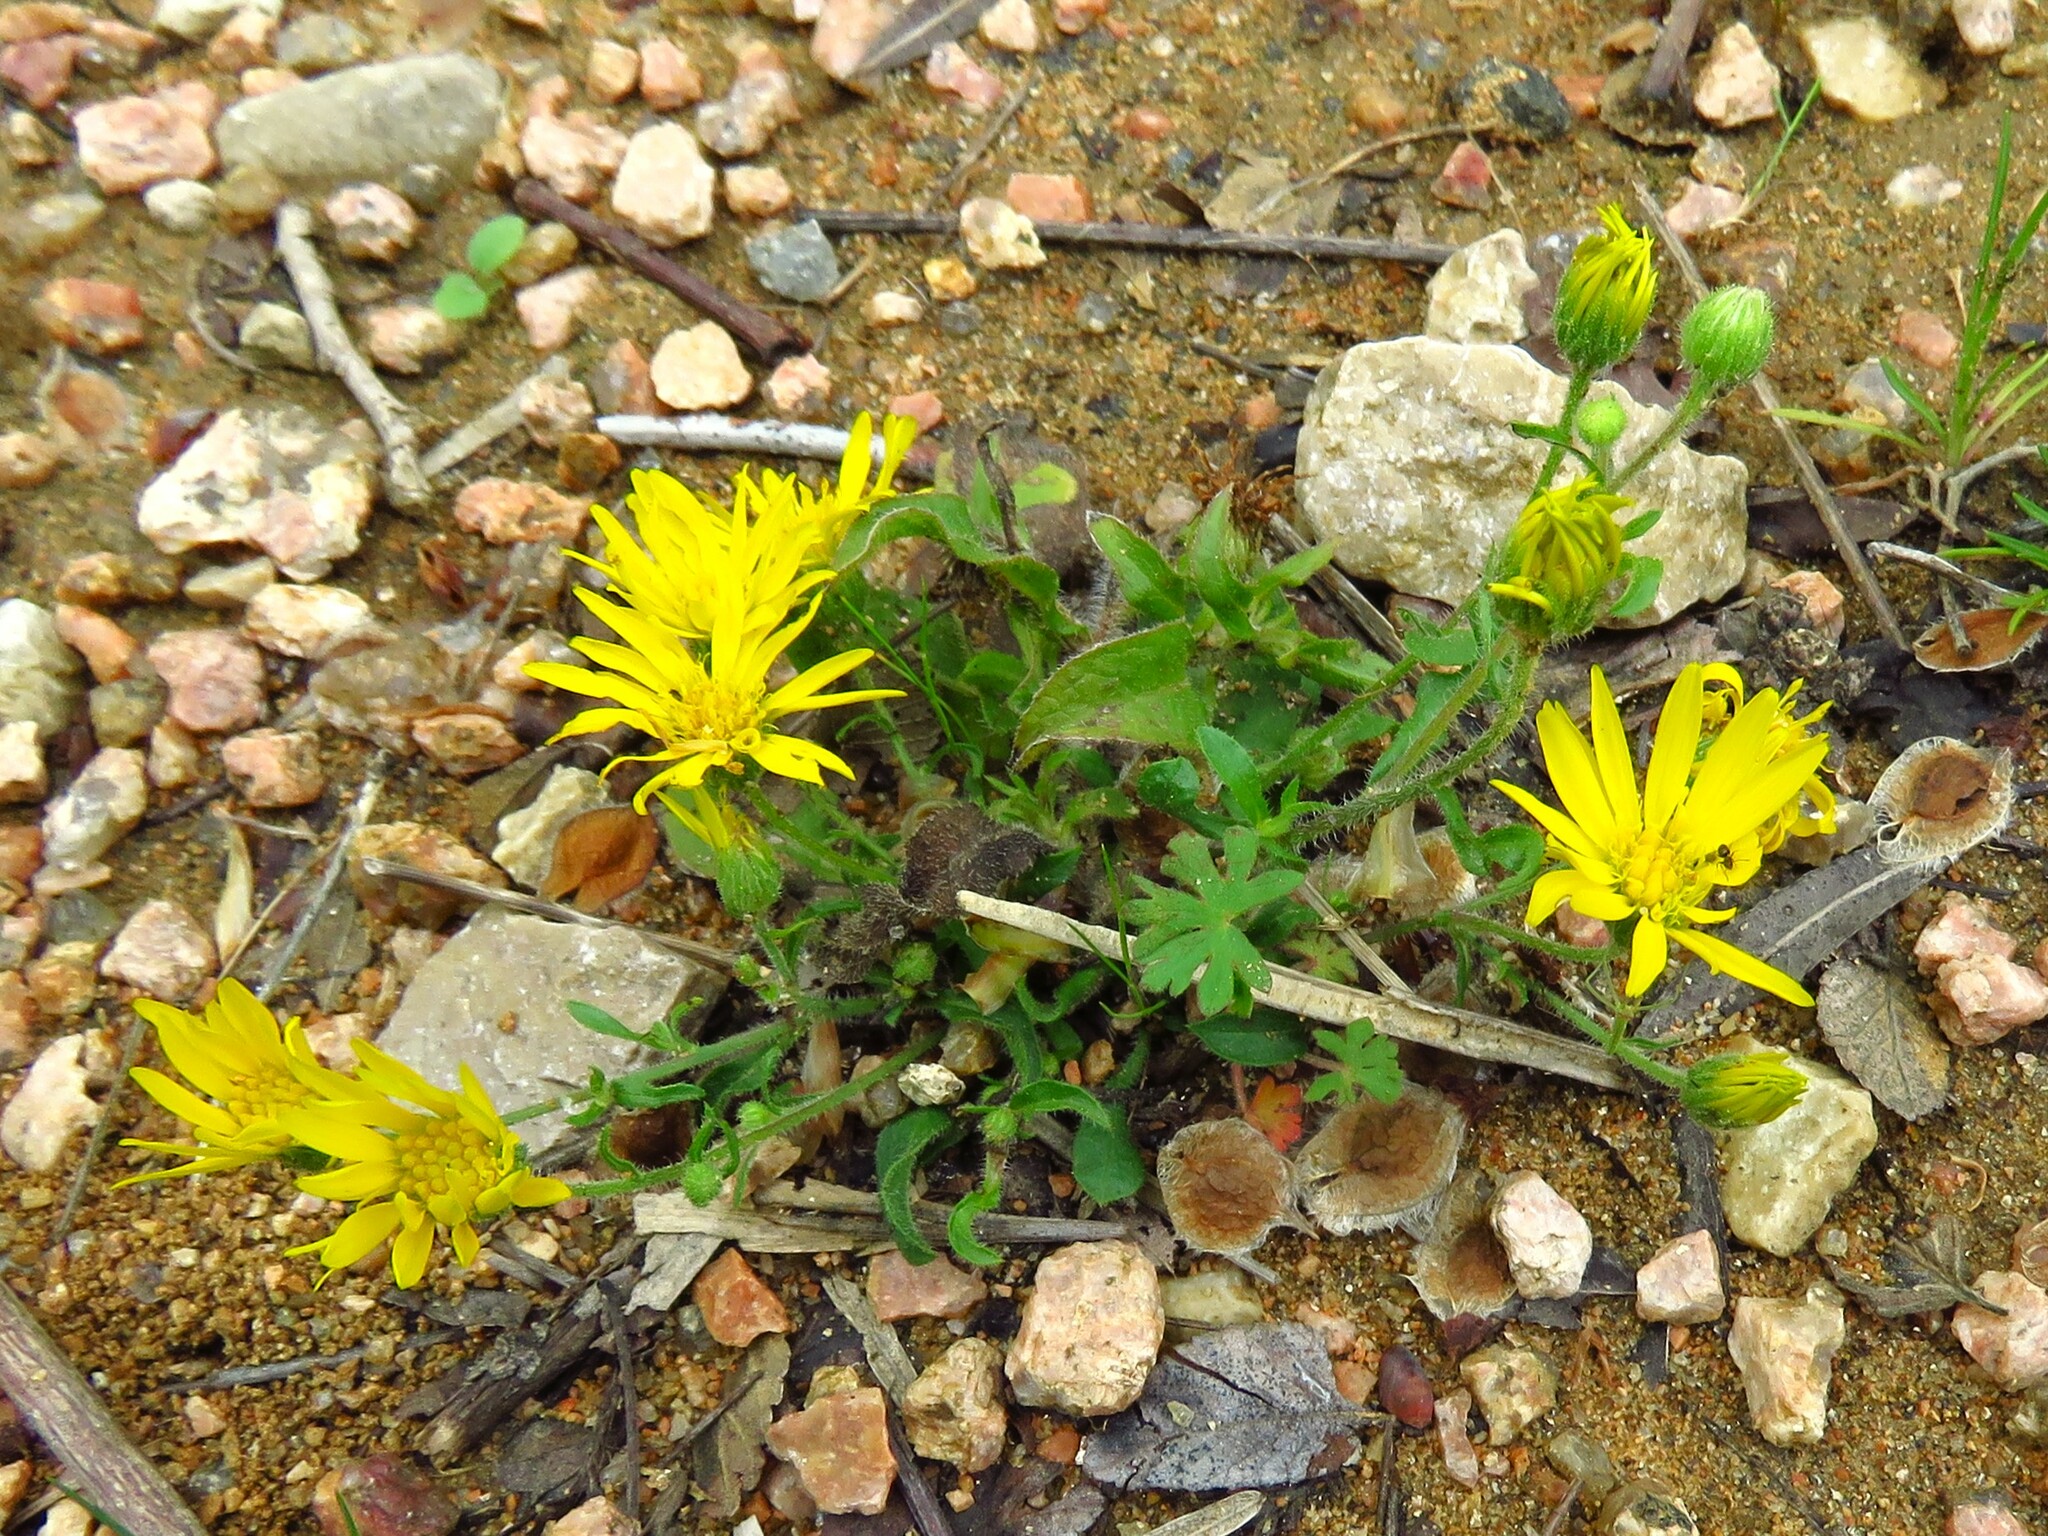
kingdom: Plantae
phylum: Tracheophyta
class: Magnoliopsida
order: Asterales
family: Asteraceae
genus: Heterotheca
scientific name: Heterotheca subaxillaris
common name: Camphorweed
